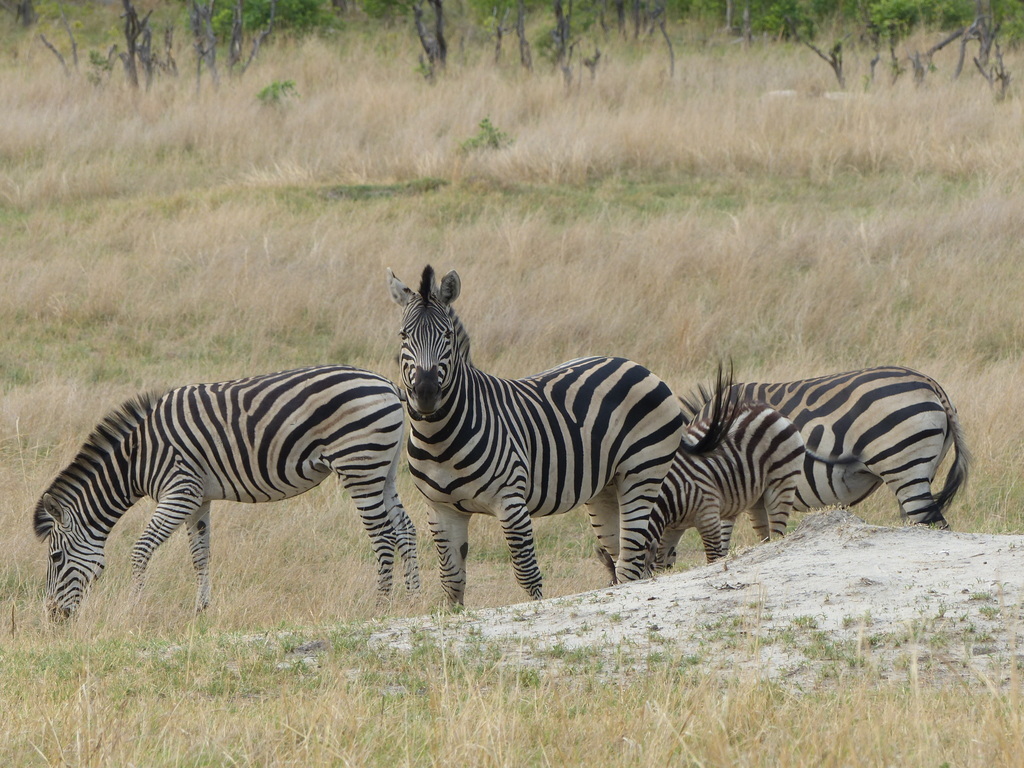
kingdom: Animalia
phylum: Chordata
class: Mammalia
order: Perissodactyla
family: Equidae
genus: Equus
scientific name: Equus quagga
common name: Plains zebra
